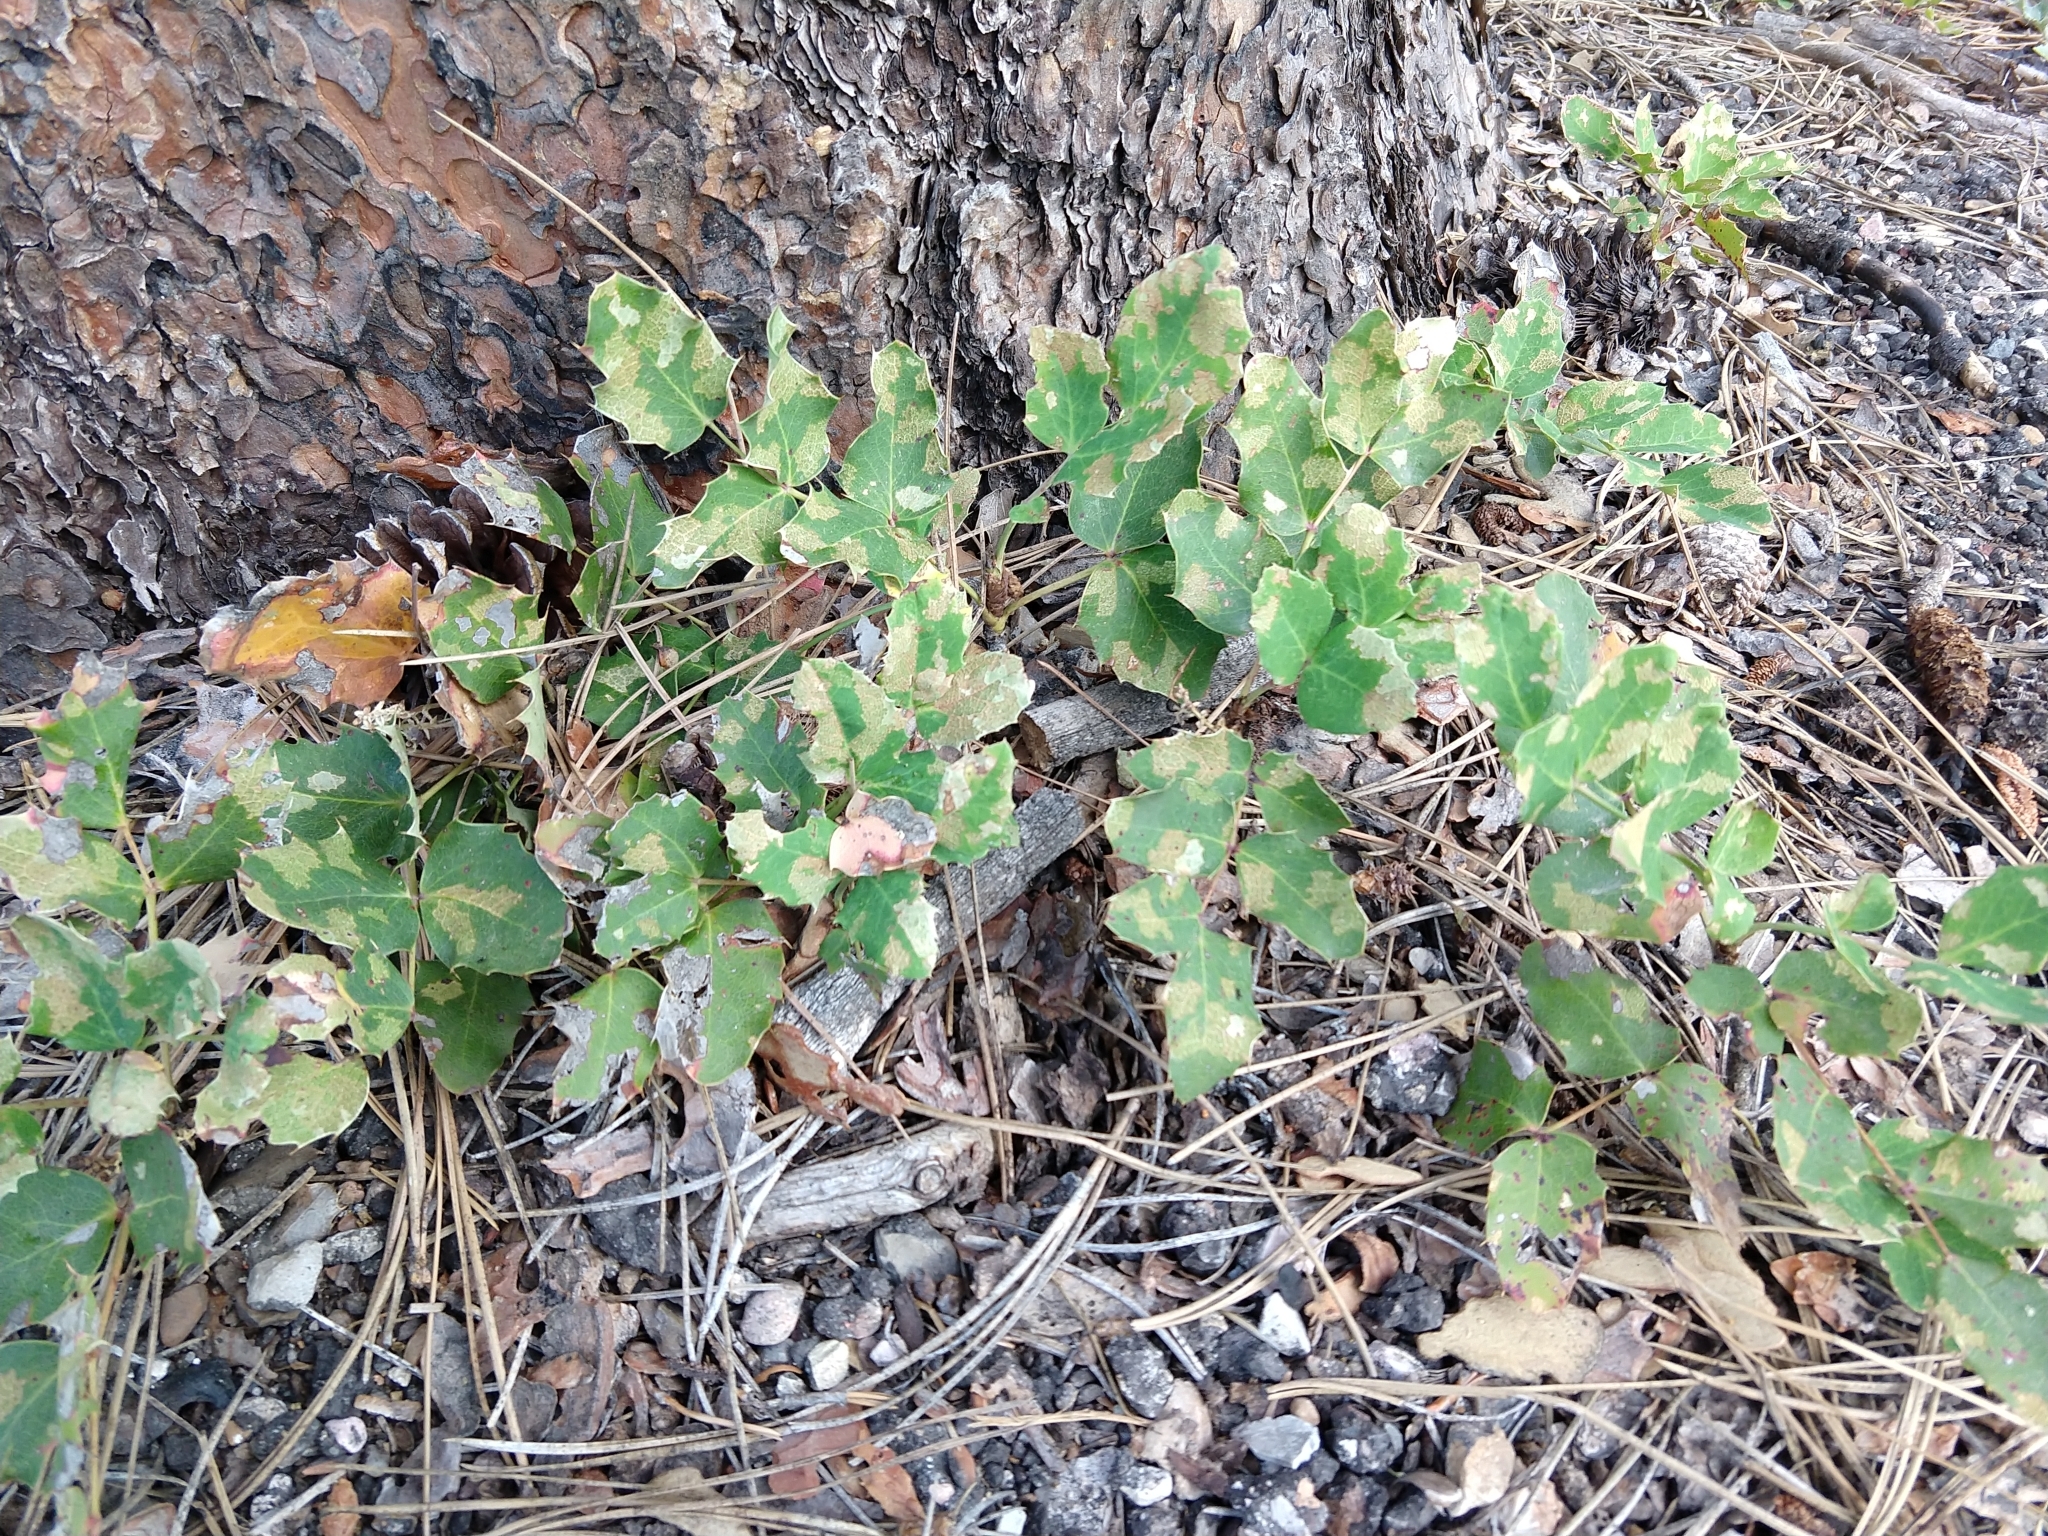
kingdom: Plantae
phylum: Tracheophyta
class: Magnoliopsida
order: Ranunculales
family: Berberidaceae
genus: Mahonia
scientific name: Mahonia repens
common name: Creeping oregon-grape
